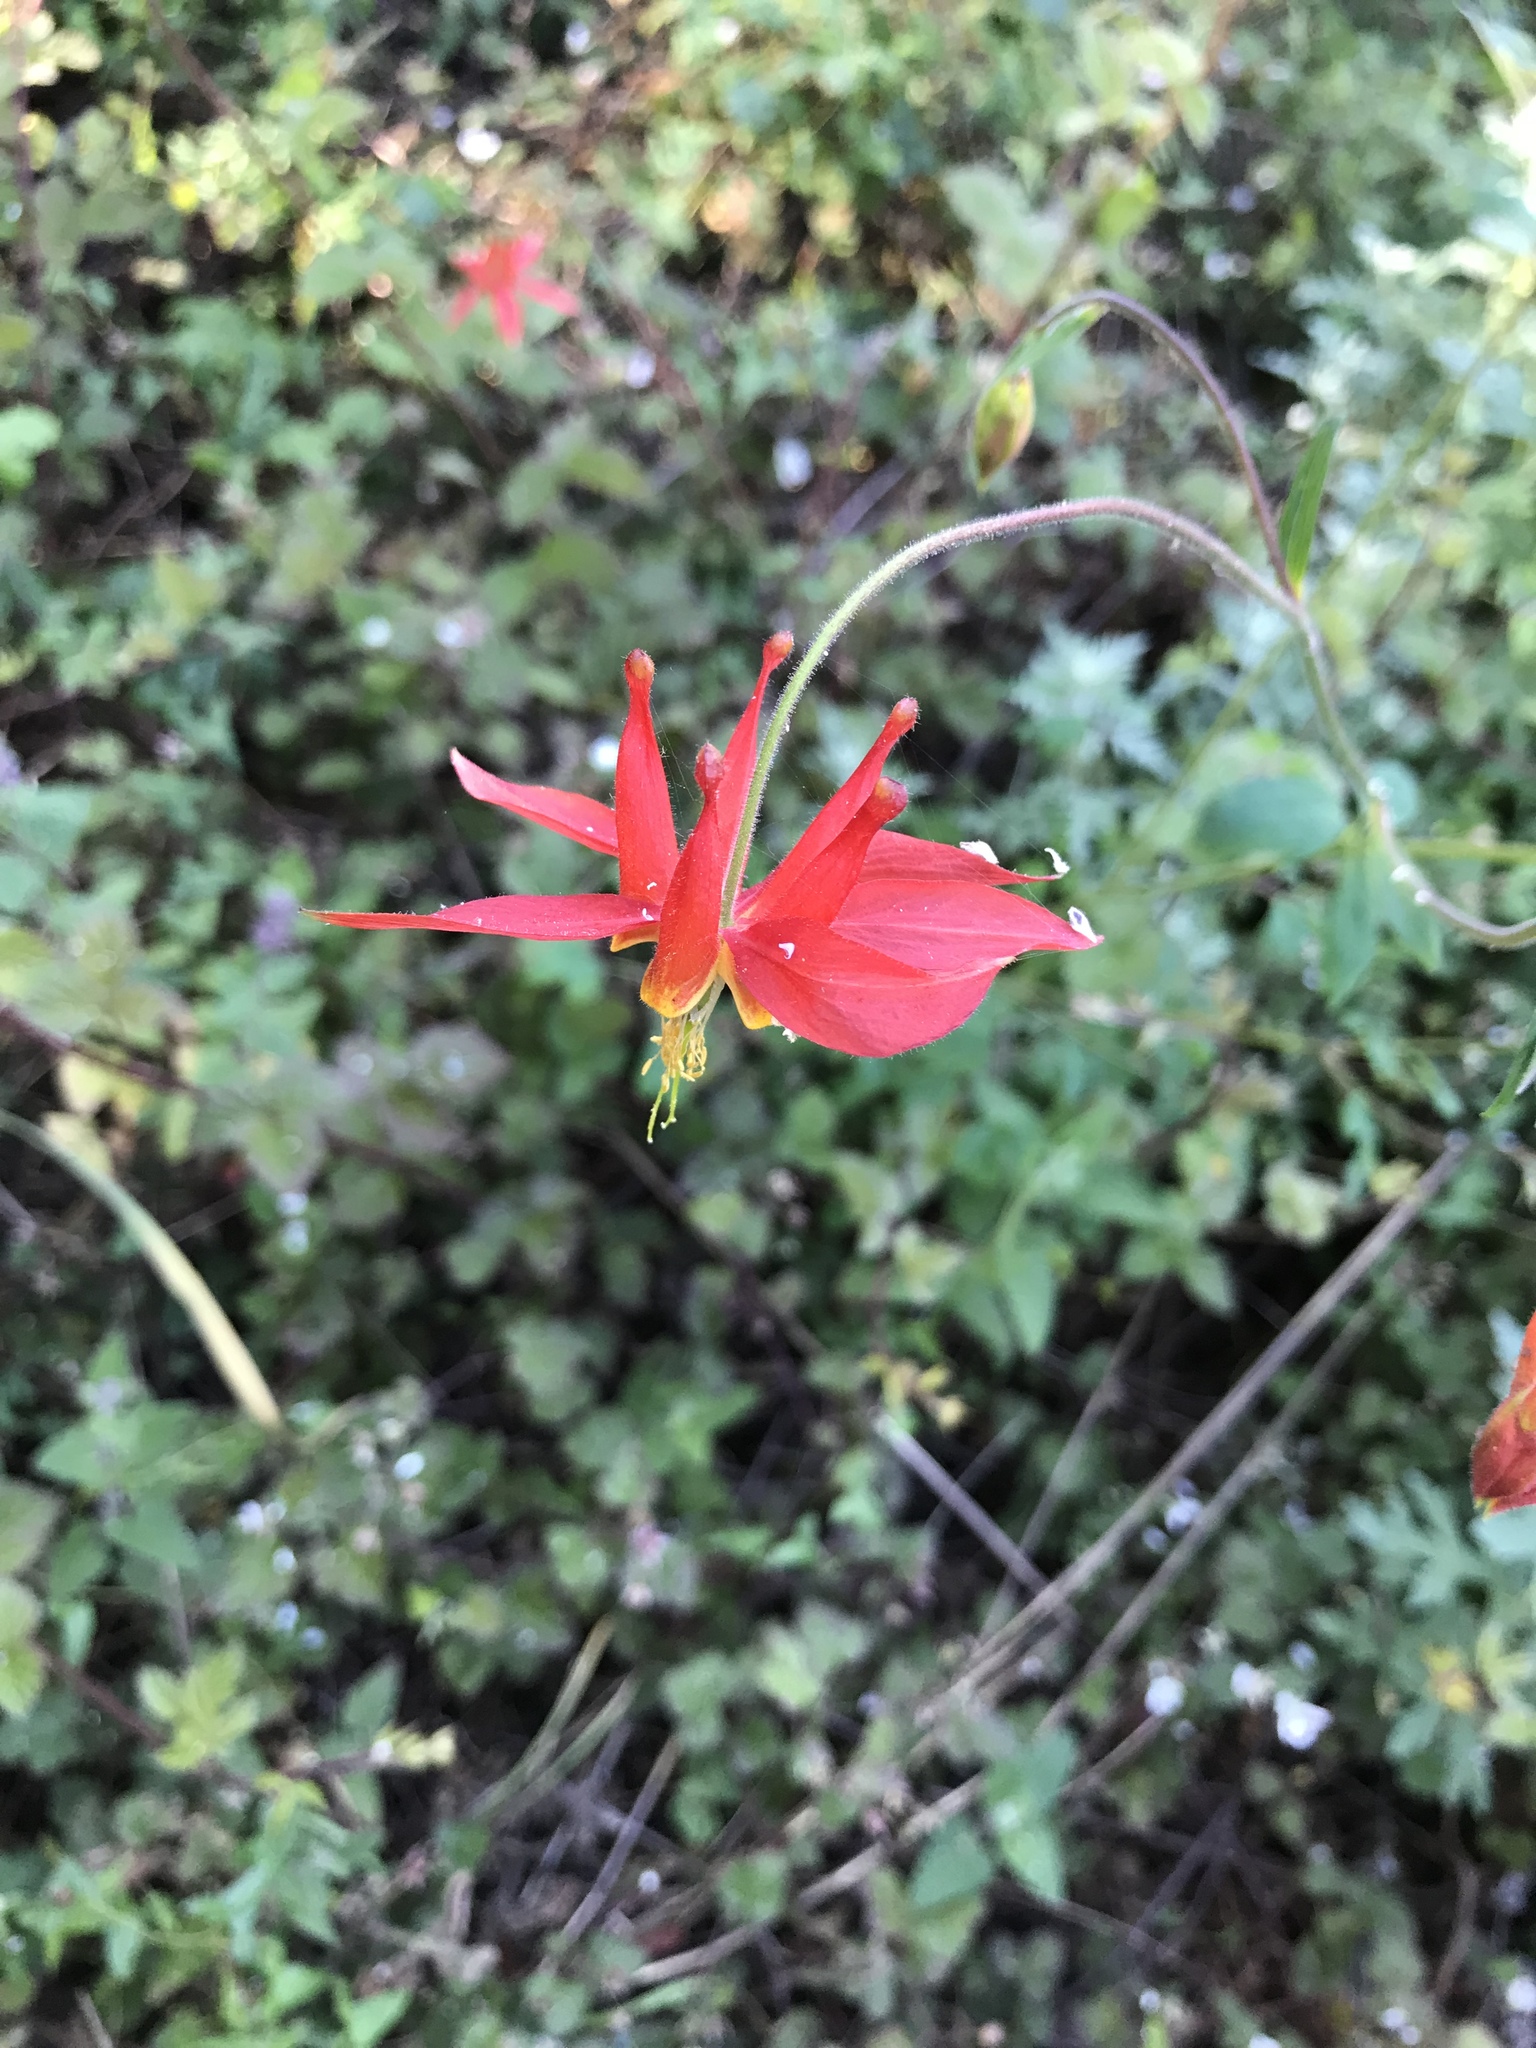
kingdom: Plantae
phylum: Tracheophyta
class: Magnoliopsida
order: Ranunculales
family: Ranunculaceae
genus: Aquilegia
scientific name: Aquilegia formosa
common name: Sitka columbine
